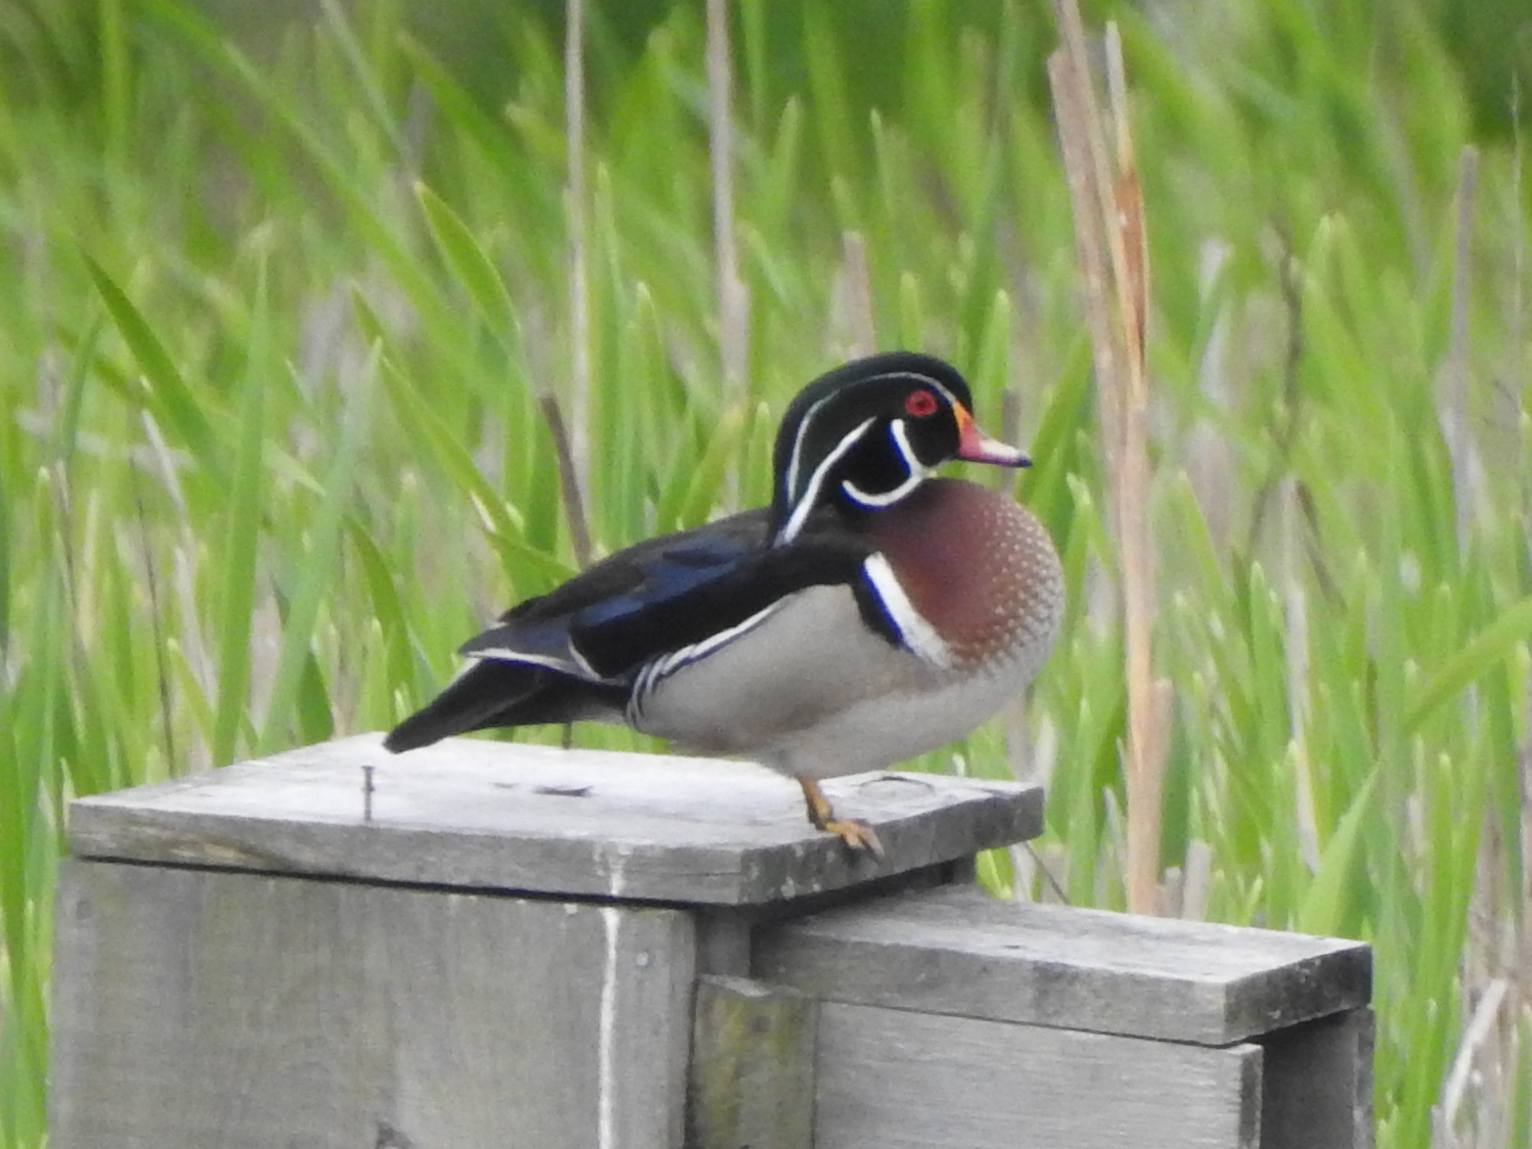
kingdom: Animalia
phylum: Chordata
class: Aves
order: Anseriformes
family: Anatidae
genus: Aix
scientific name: Aix sponsa
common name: Wood duck
